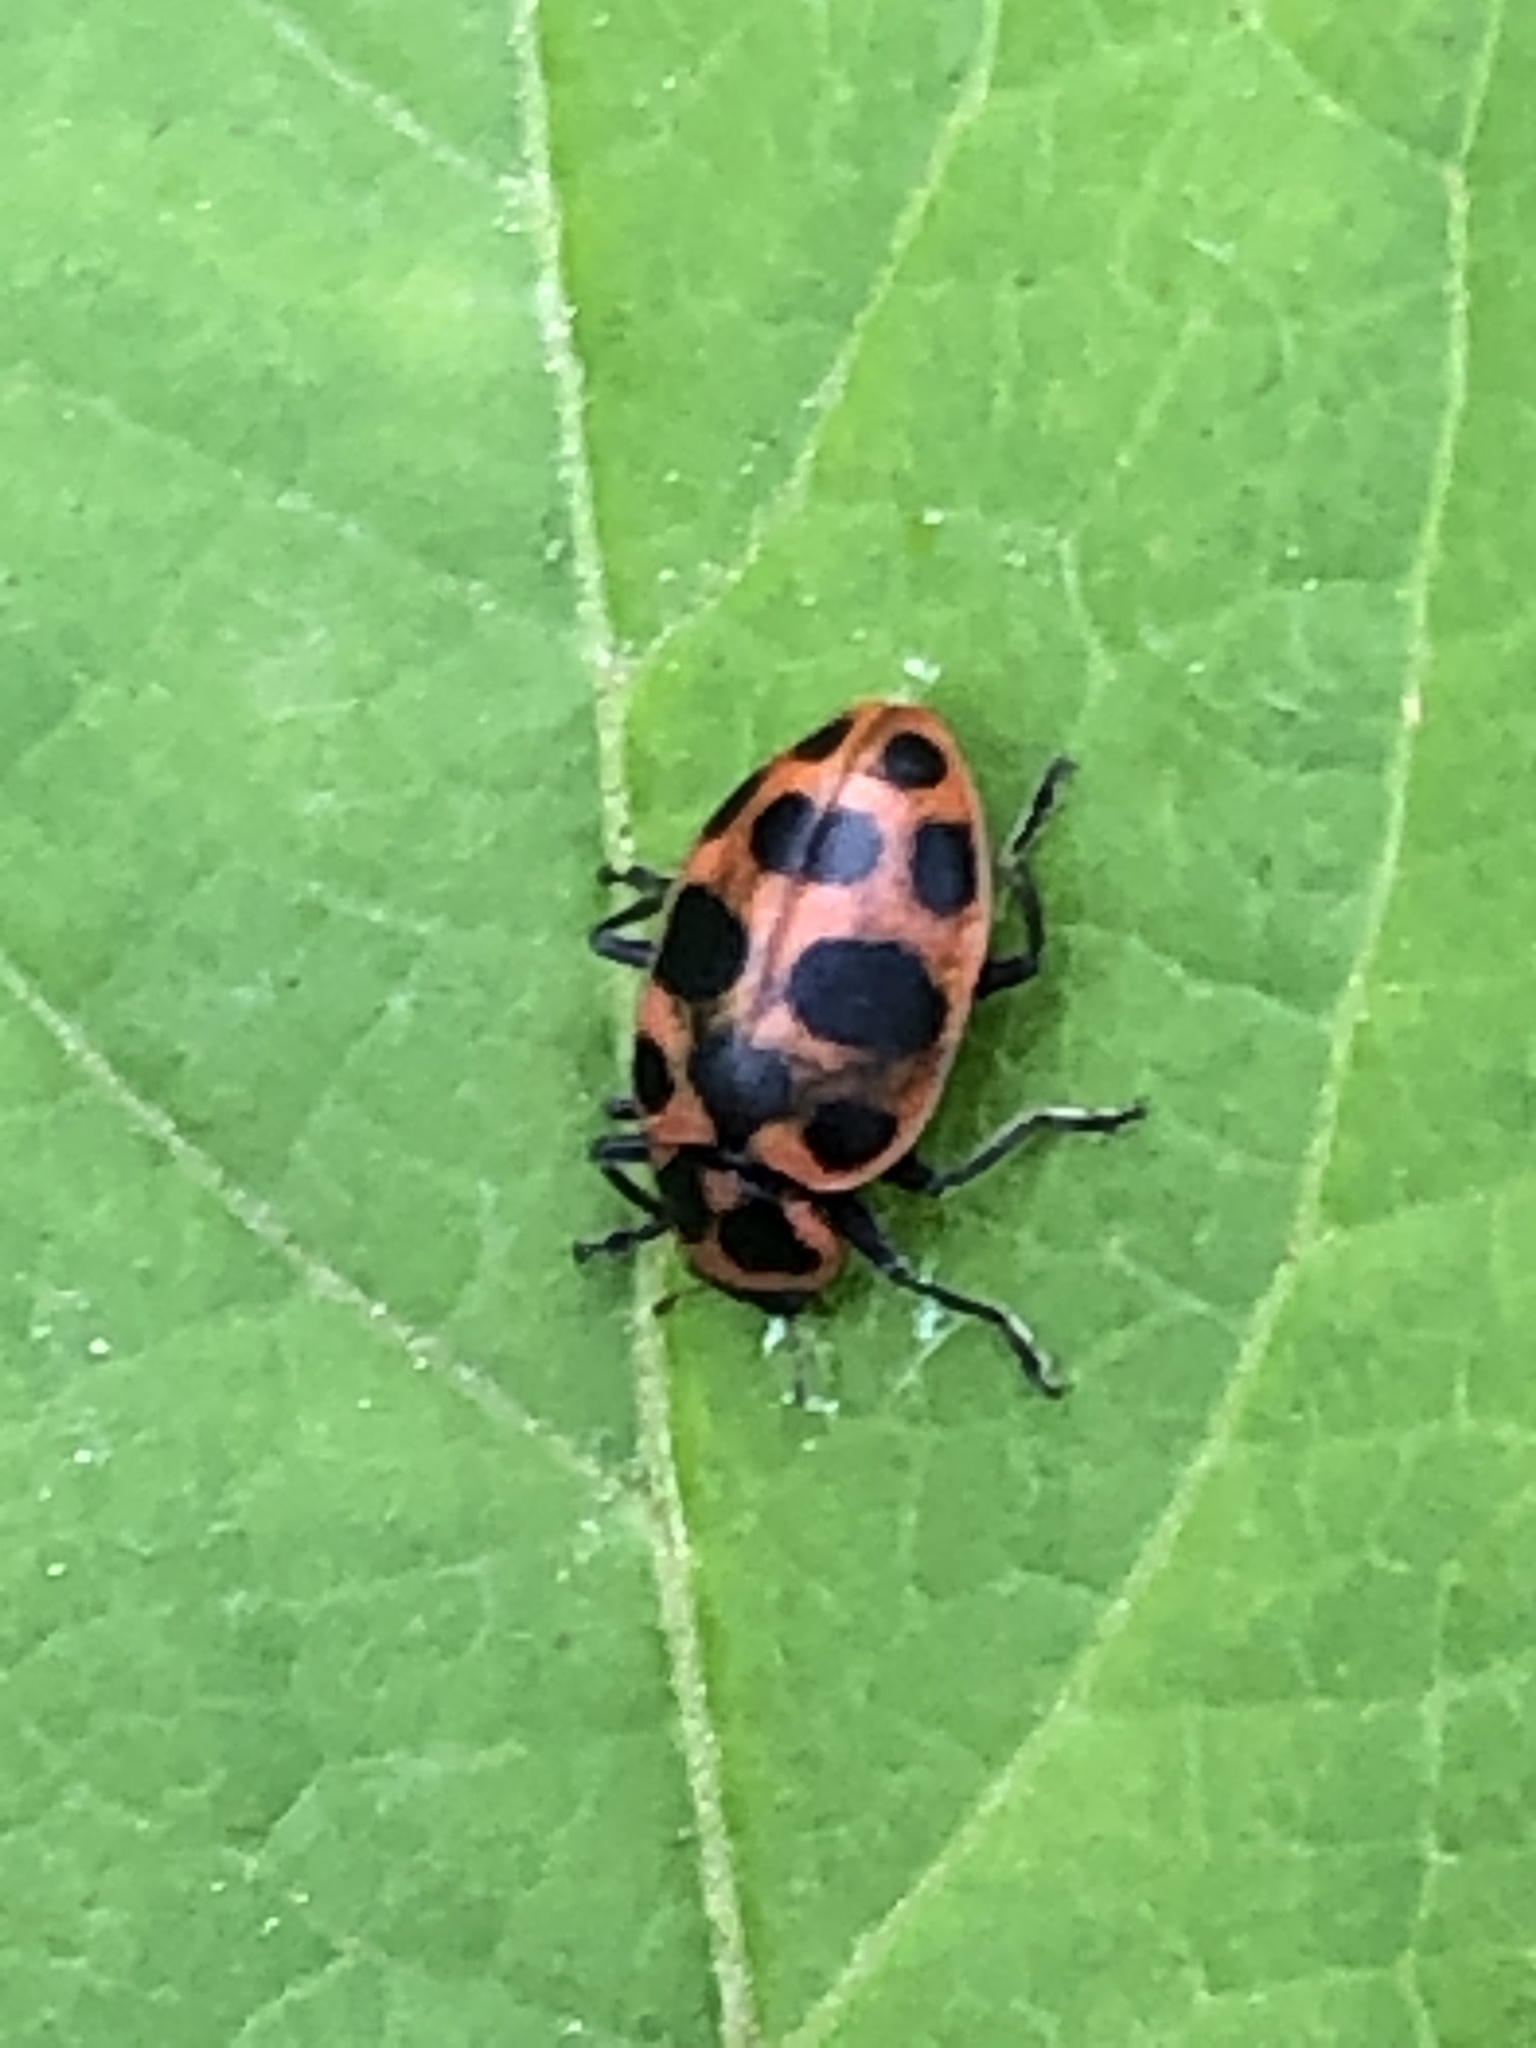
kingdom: Animalia
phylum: Arthropoda
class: Insecta
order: Coleoptera
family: Coccinellidae
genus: Coleomegilla
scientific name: Coleomegilla maculata
